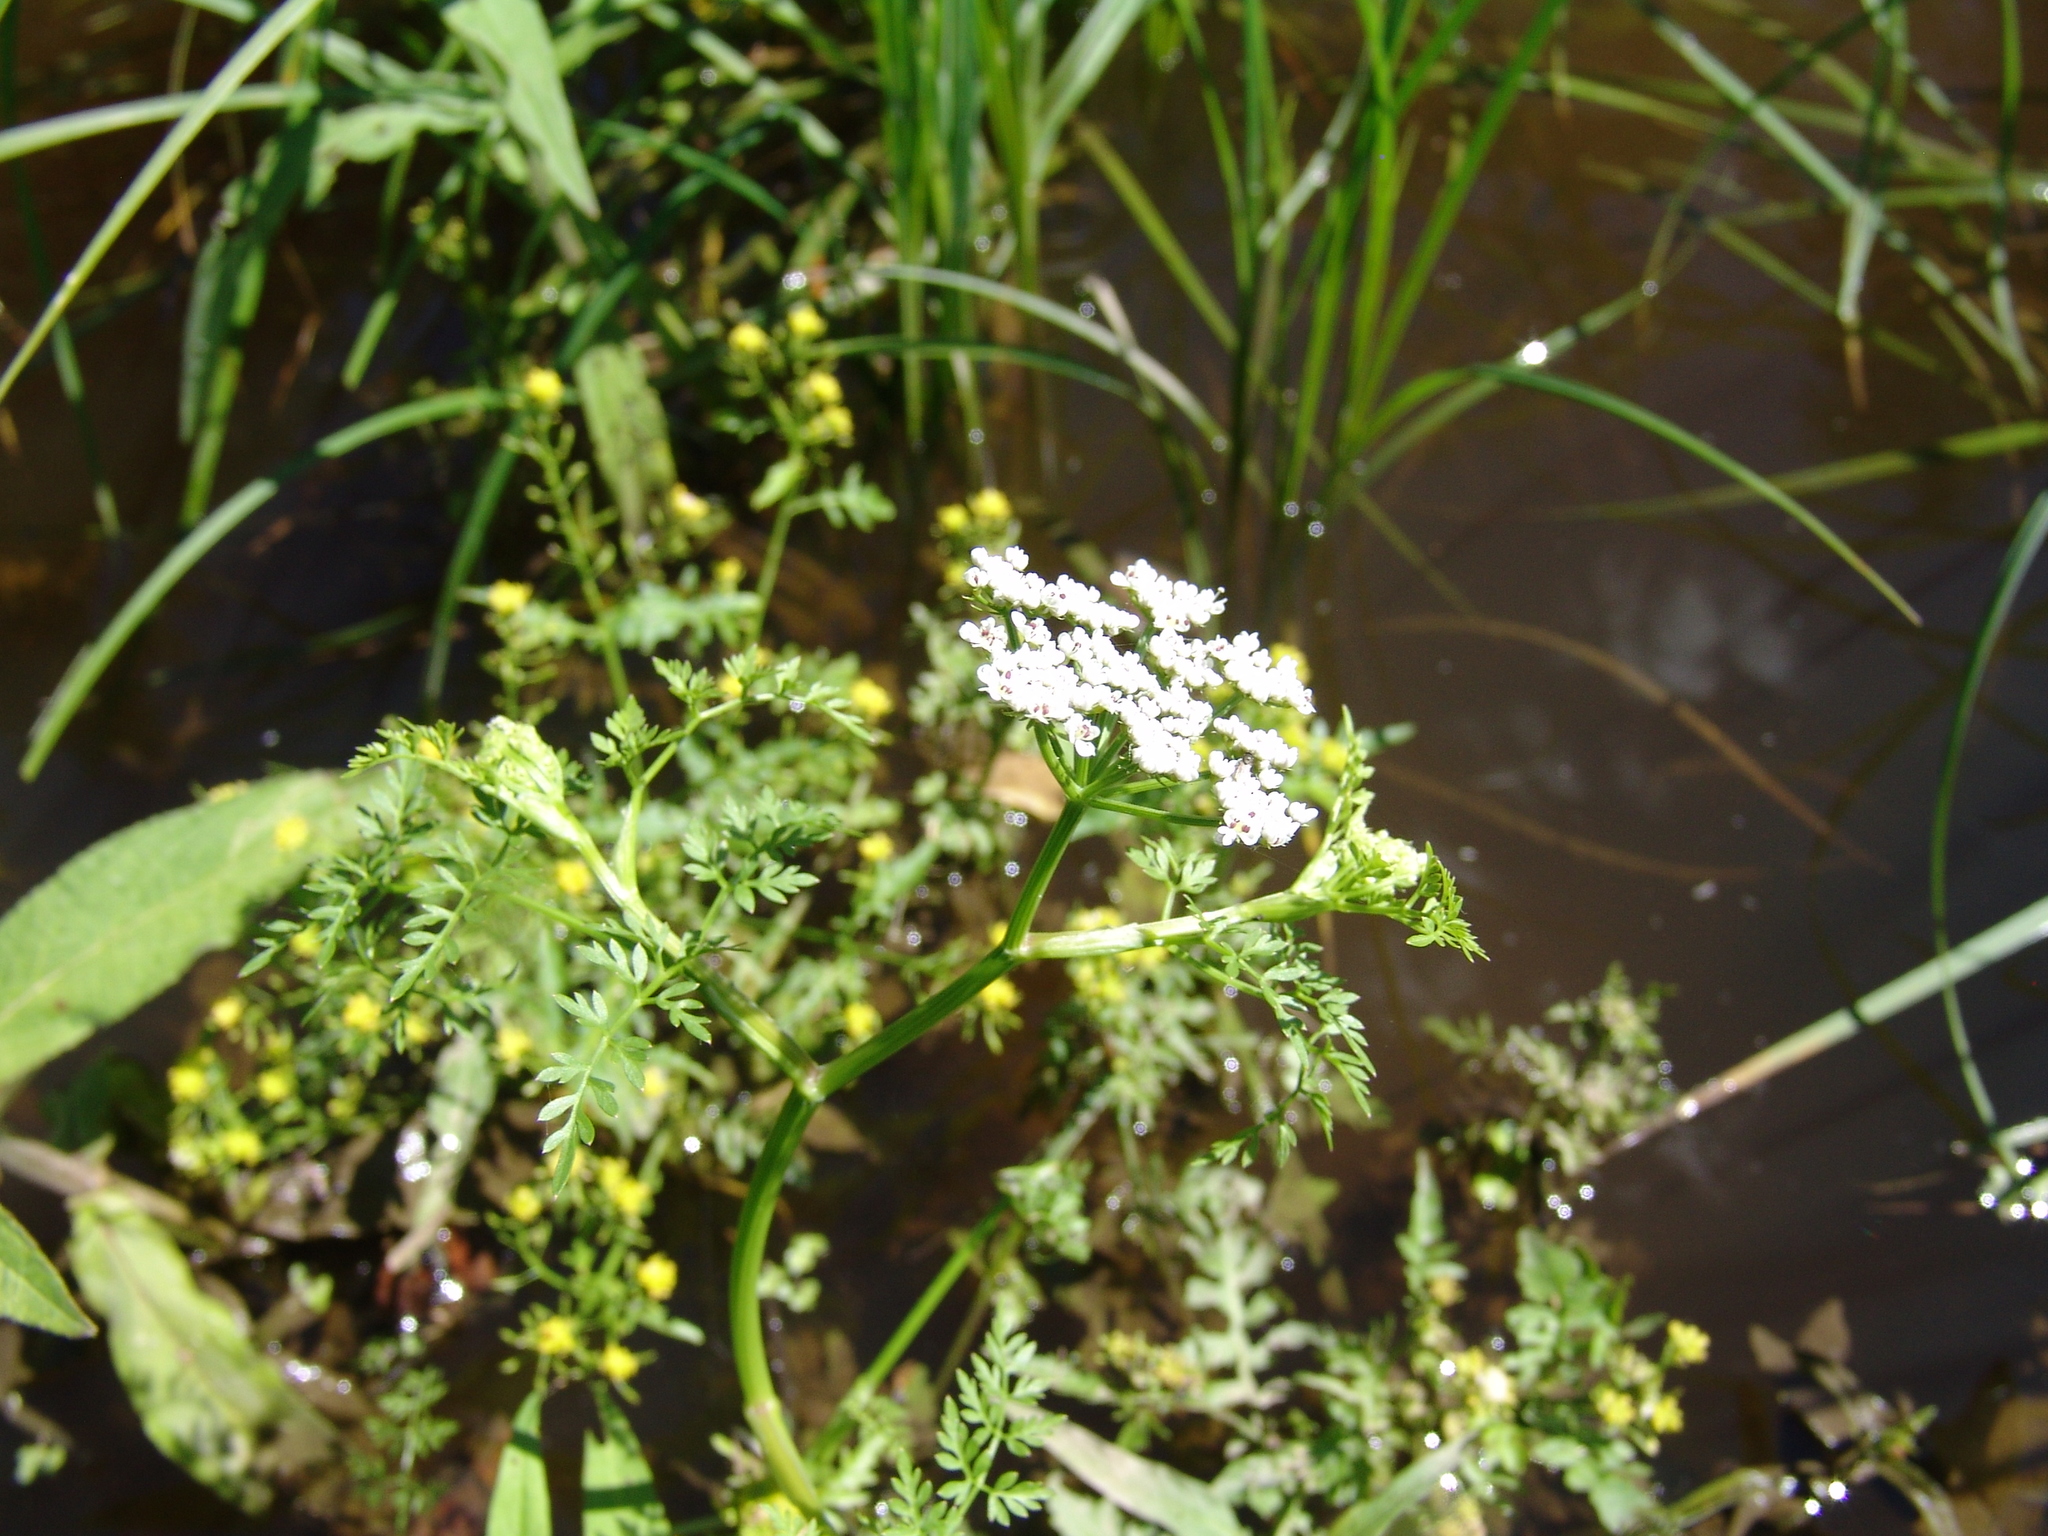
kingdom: Plantae
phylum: Tracheophyta
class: Magnoliopsida
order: Apiales
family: Apiaceae
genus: Oenanthe
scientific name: Oenanthe aquatica
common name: Fine-leaved water-dropwort
